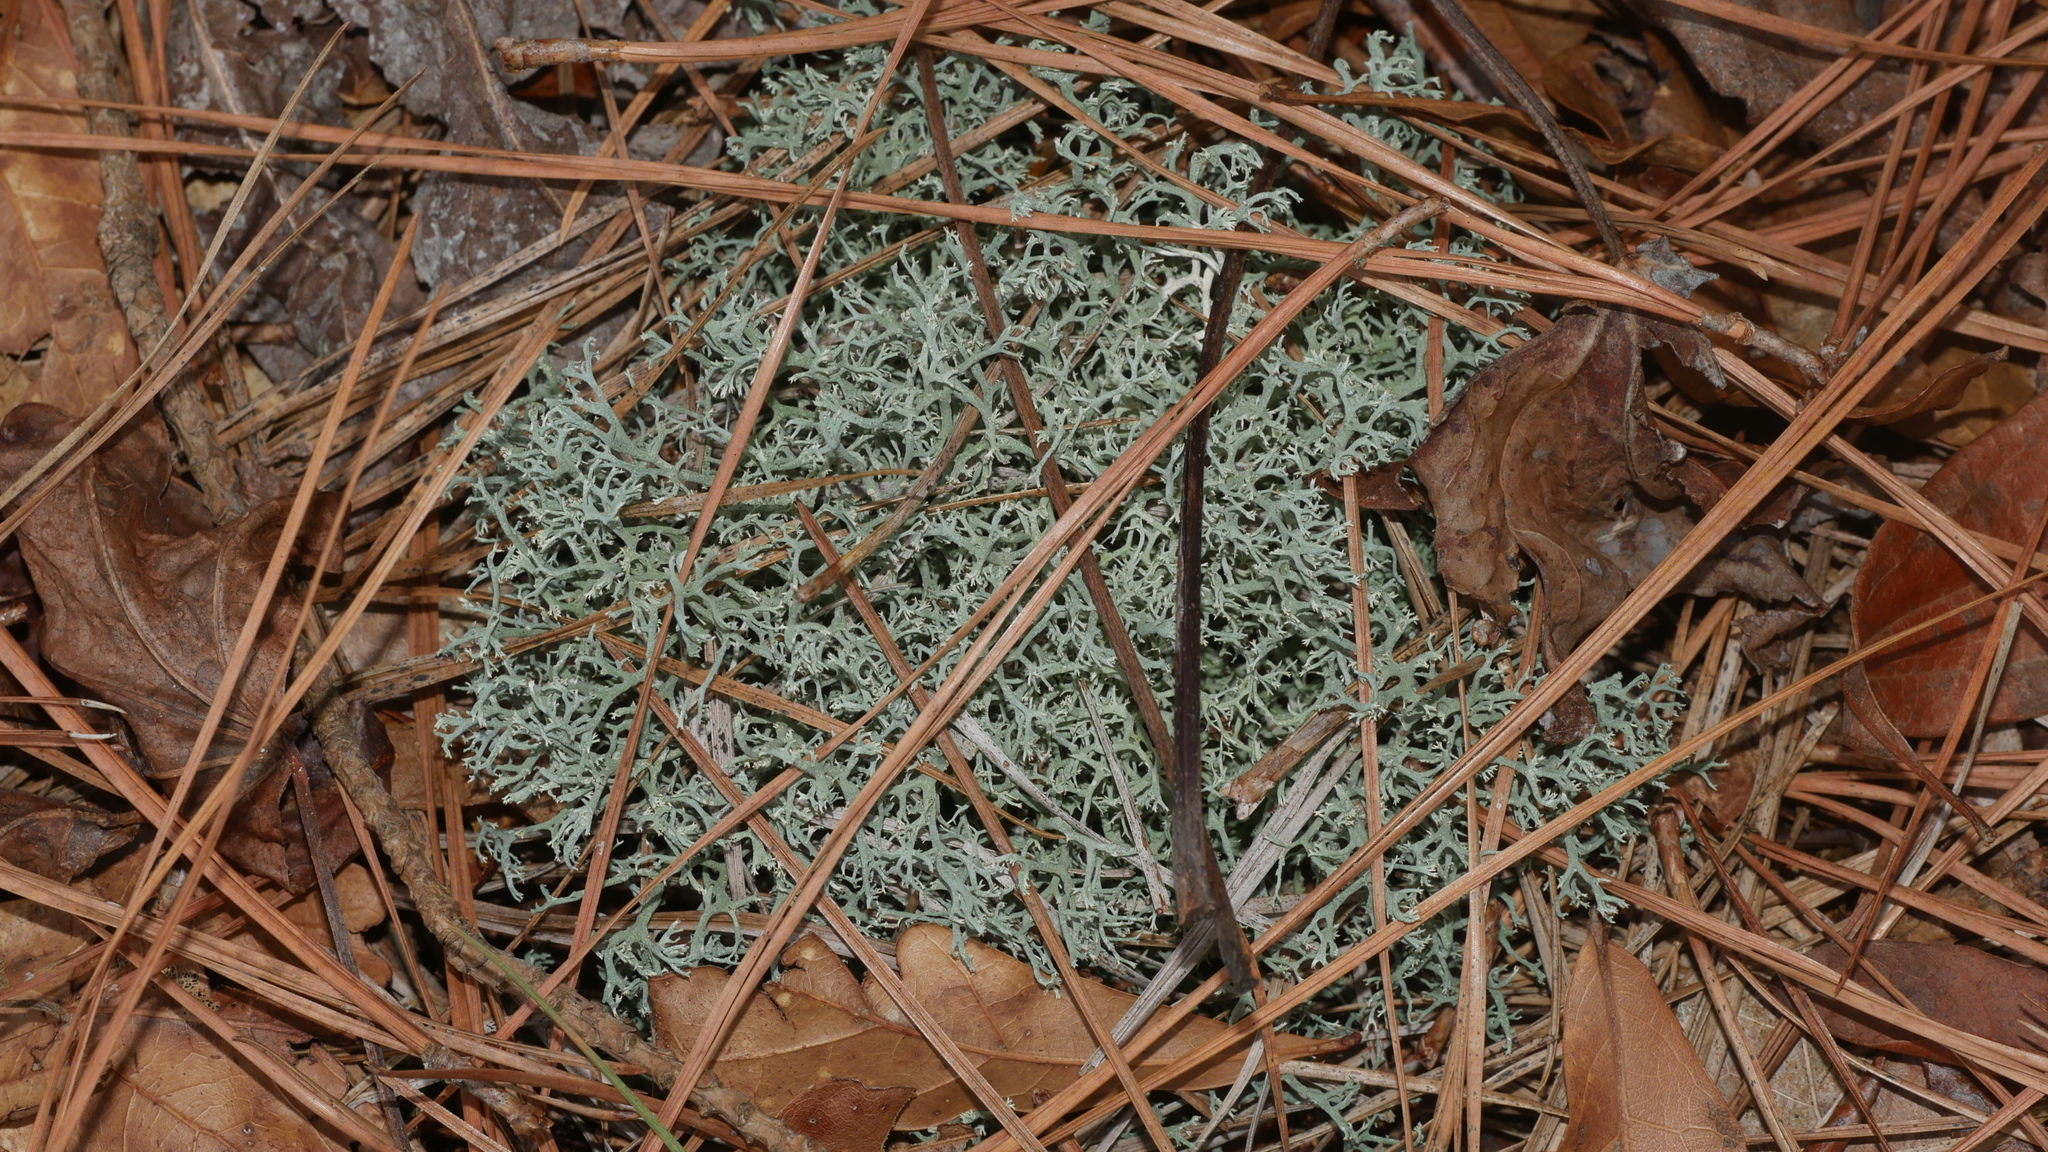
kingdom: Fungi
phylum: Ascomycota
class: Lecanoromycetes
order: Lecanorales
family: Cladoniaceae
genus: Cladonia
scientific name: Cladonia subtenuis
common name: Dixie reindeer lichen
